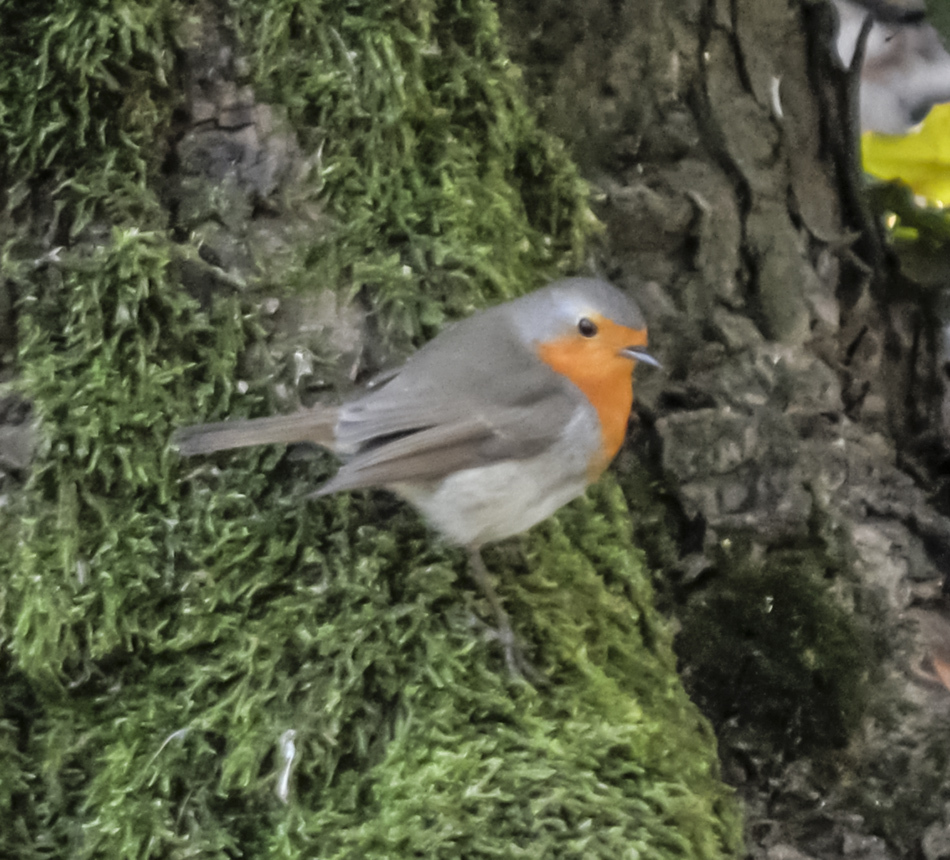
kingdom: Animalia
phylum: Chordata
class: Aves
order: Passeriformes
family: Muscicapidae
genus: Erithacus
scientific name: Erithacus rubecula
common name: European robin
